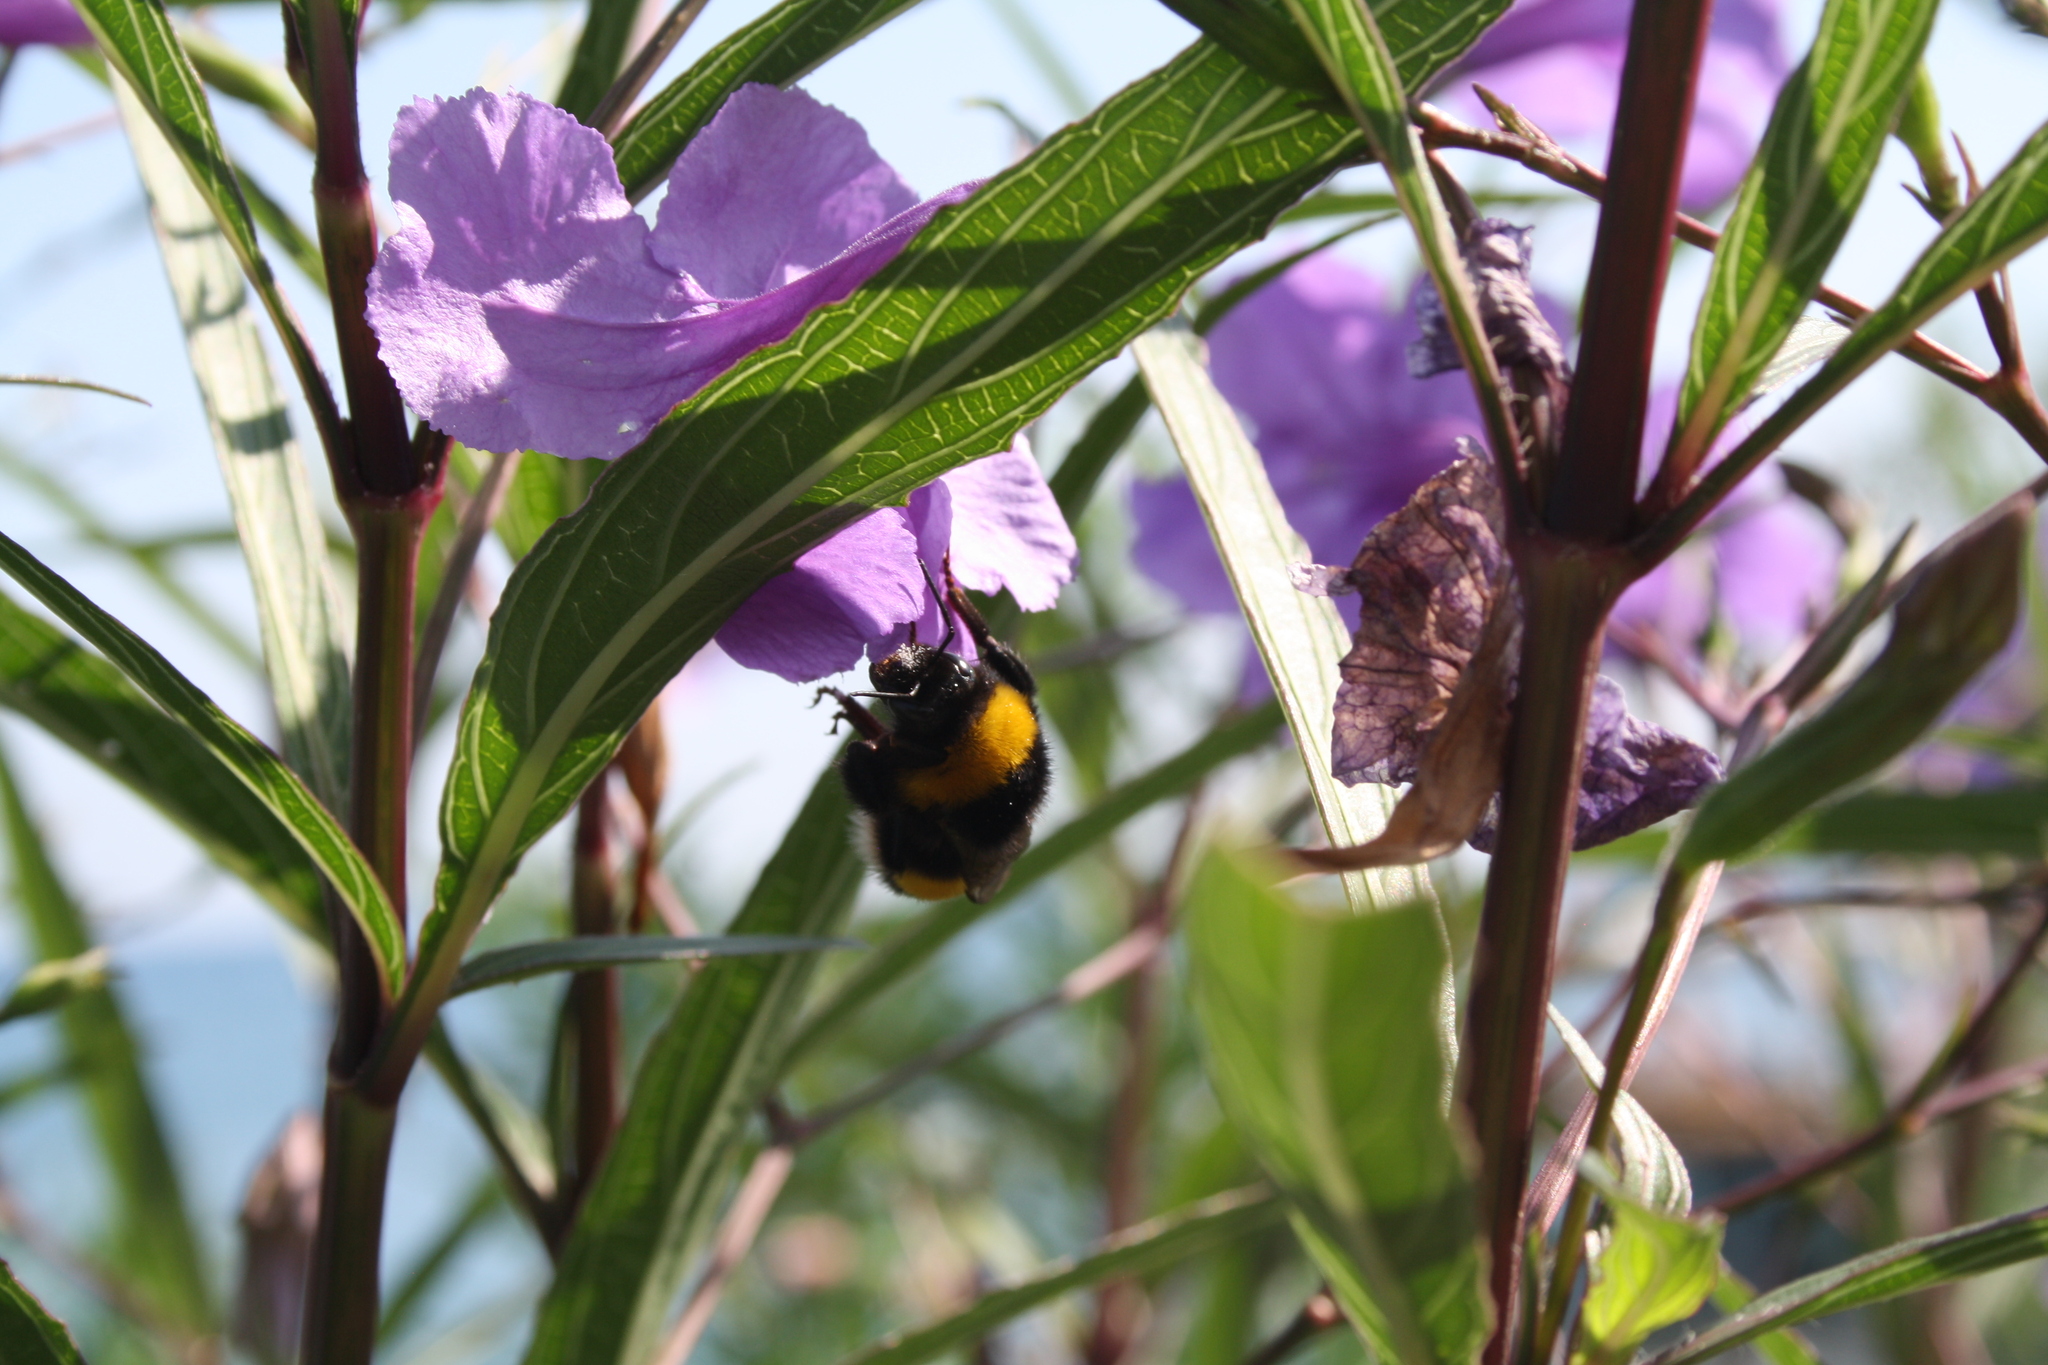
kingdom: Animalia
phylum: Arthropoda
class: Insecta
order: Hymenoptera
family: Apidae
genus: Bombus
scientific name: Bombus terrestris
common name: Buff-tailed bumblebee
